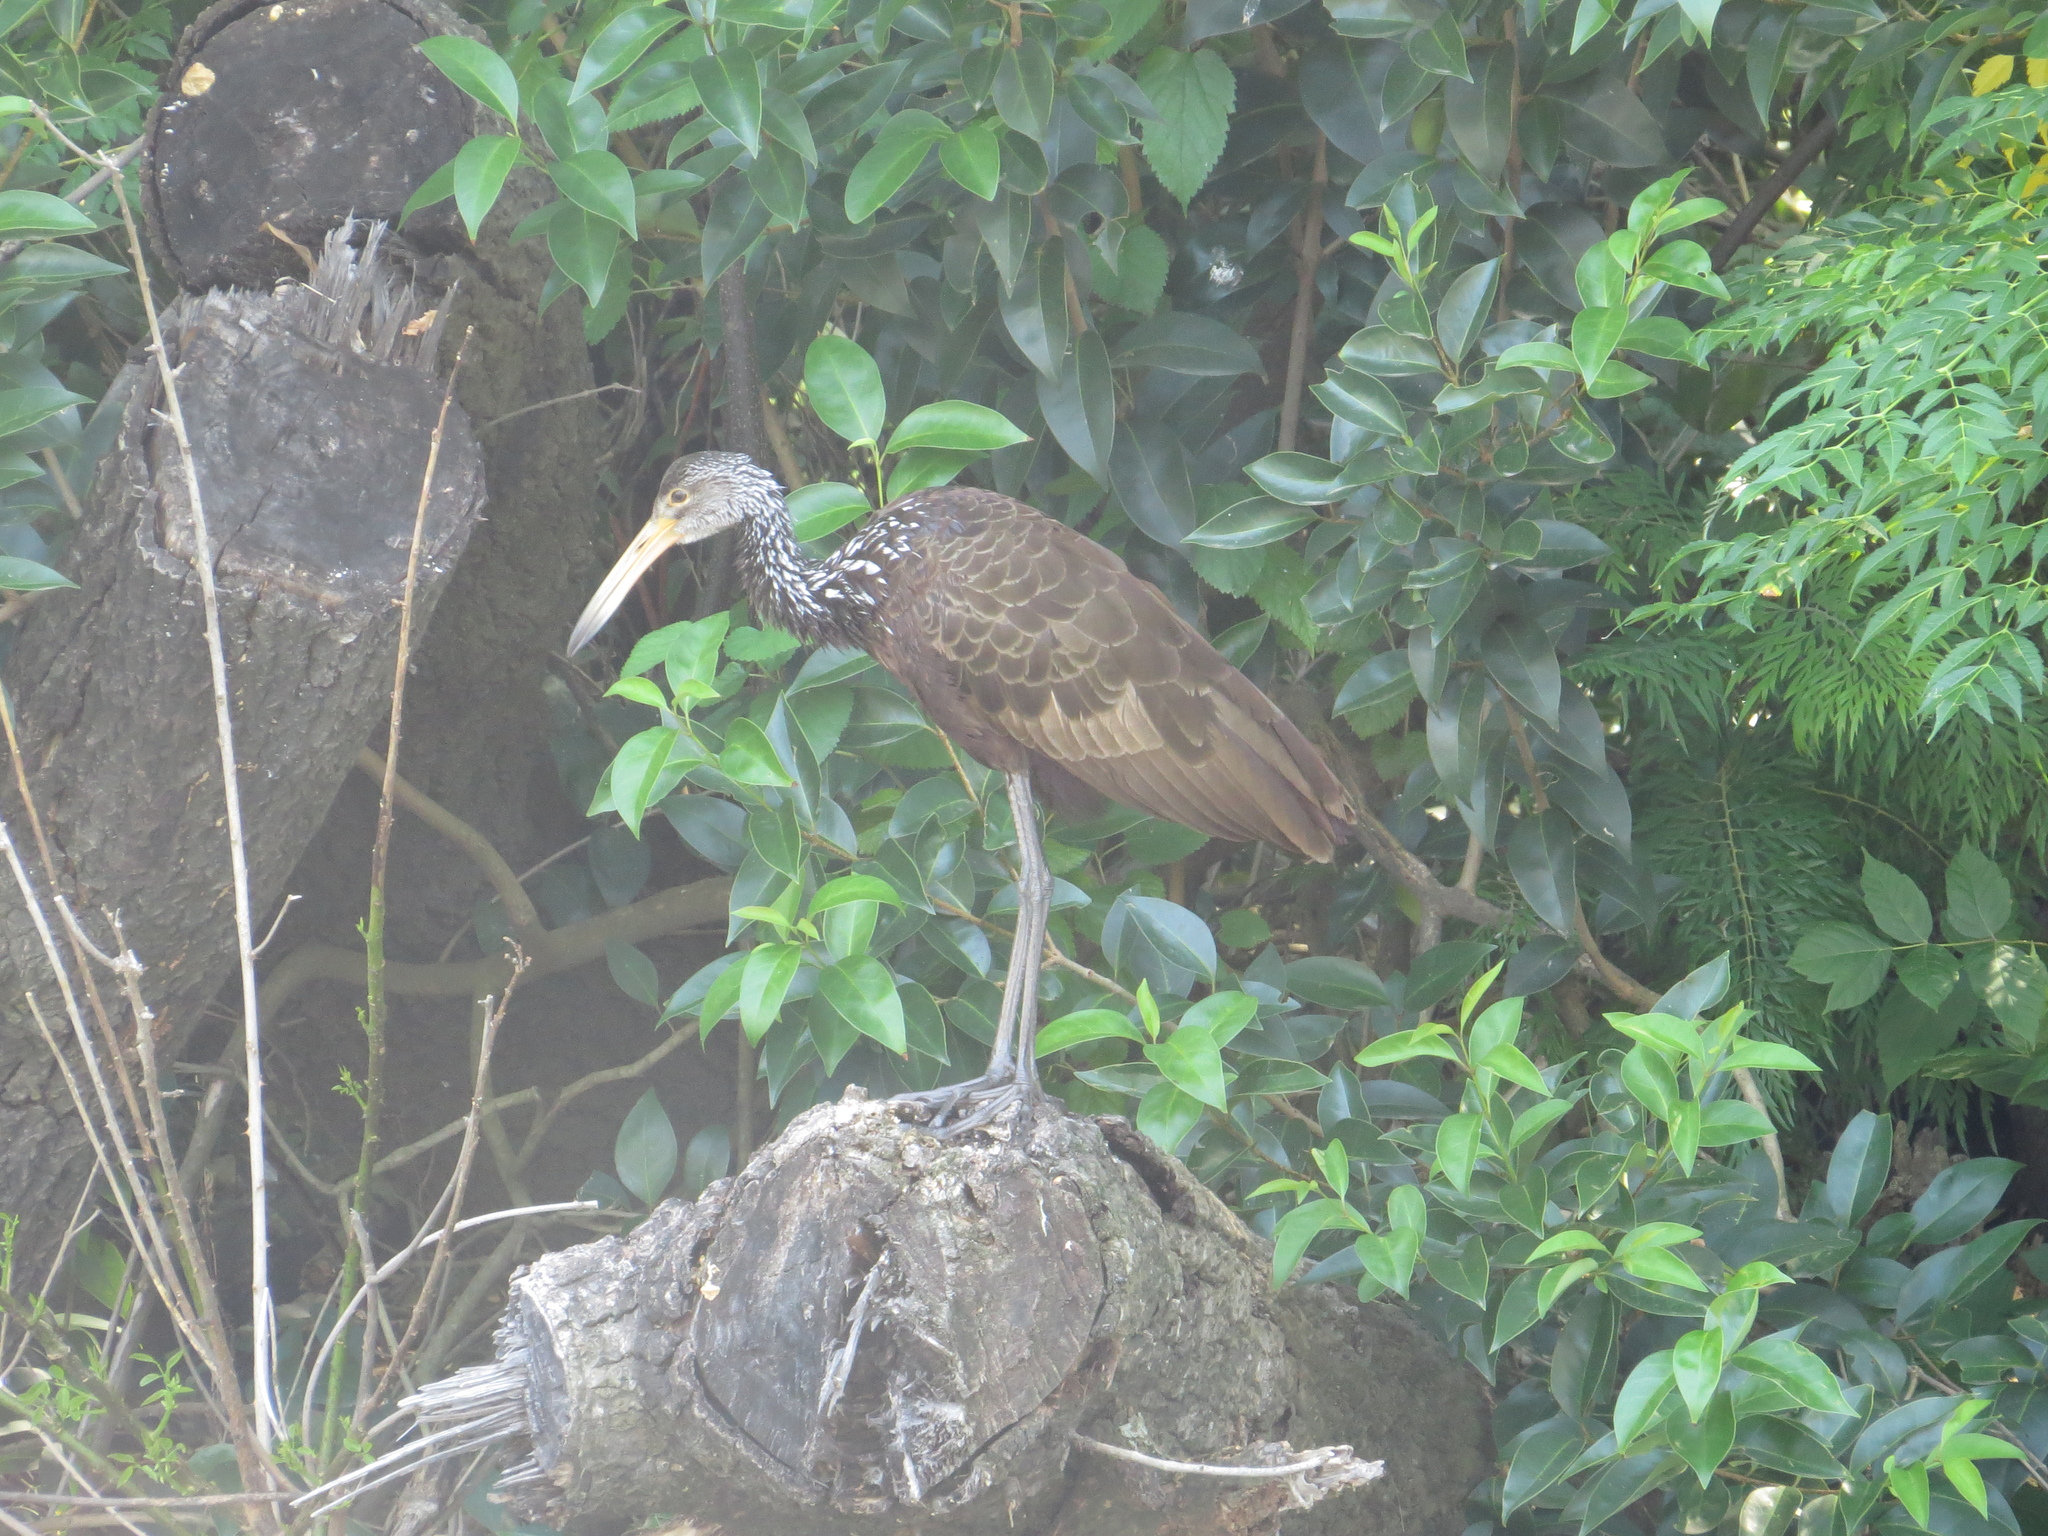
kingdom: Animalia
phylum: Chordata
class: Aves
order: Gruiformes
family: Aramidae
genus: Aramus
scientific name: Aramus guarauna
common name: Limpkin
